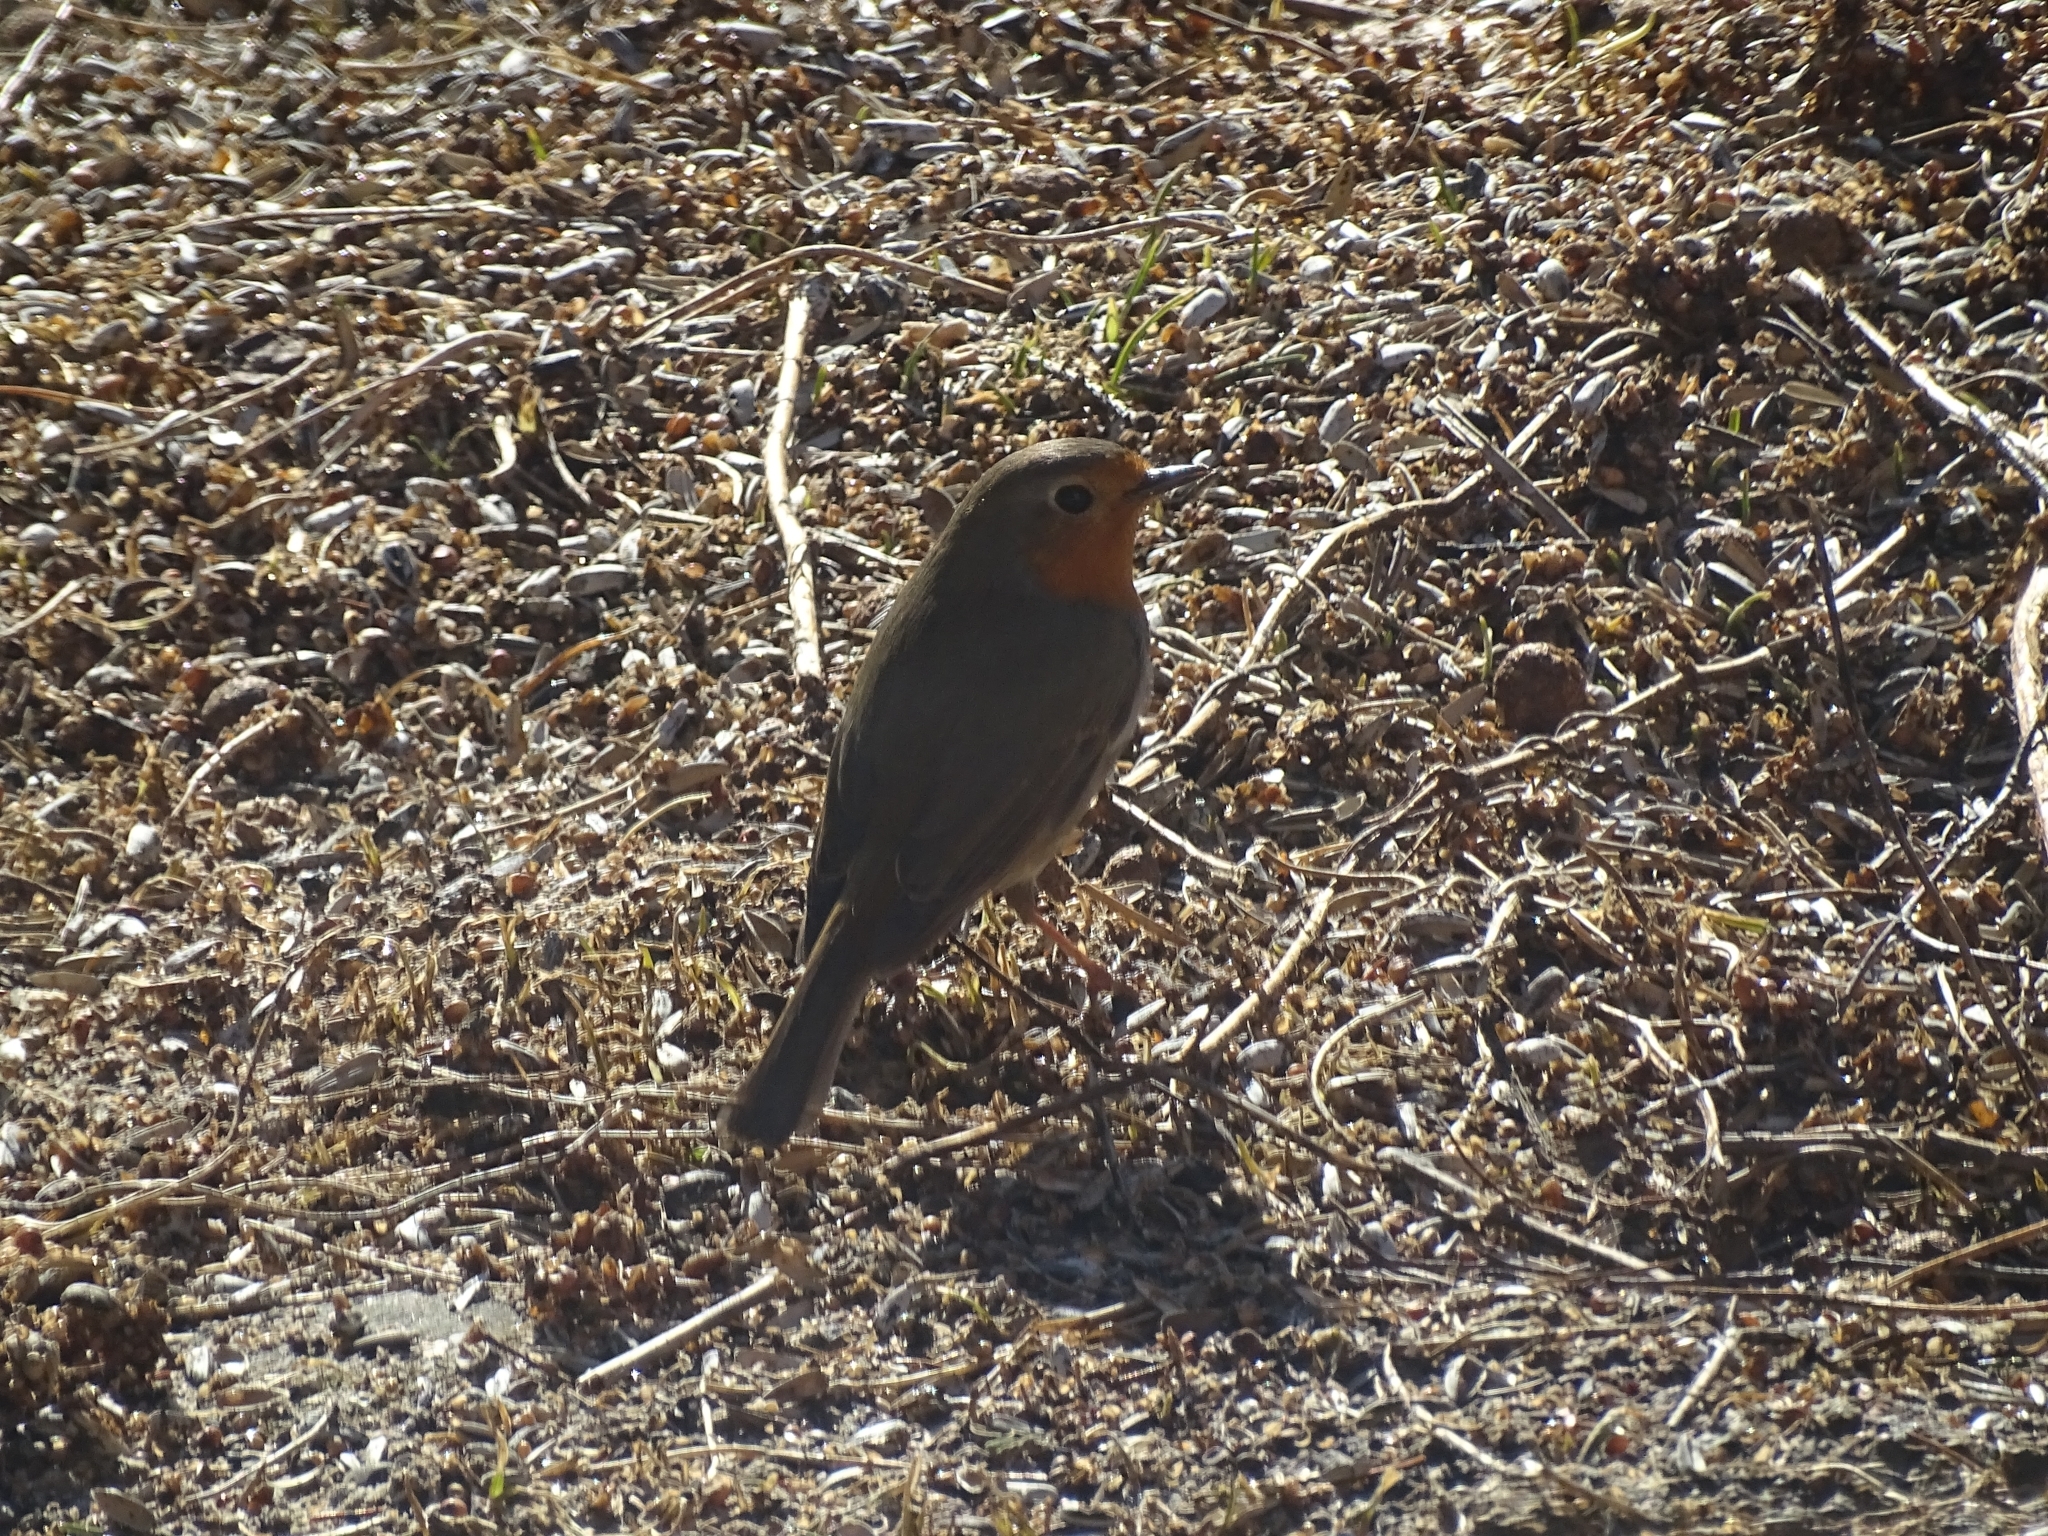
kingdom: Animalia
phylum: Chordata
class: Aves
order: Passeriformes
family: Muscicapidae
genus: Erithacus
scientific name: Erithacus rubecula
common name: European robin
